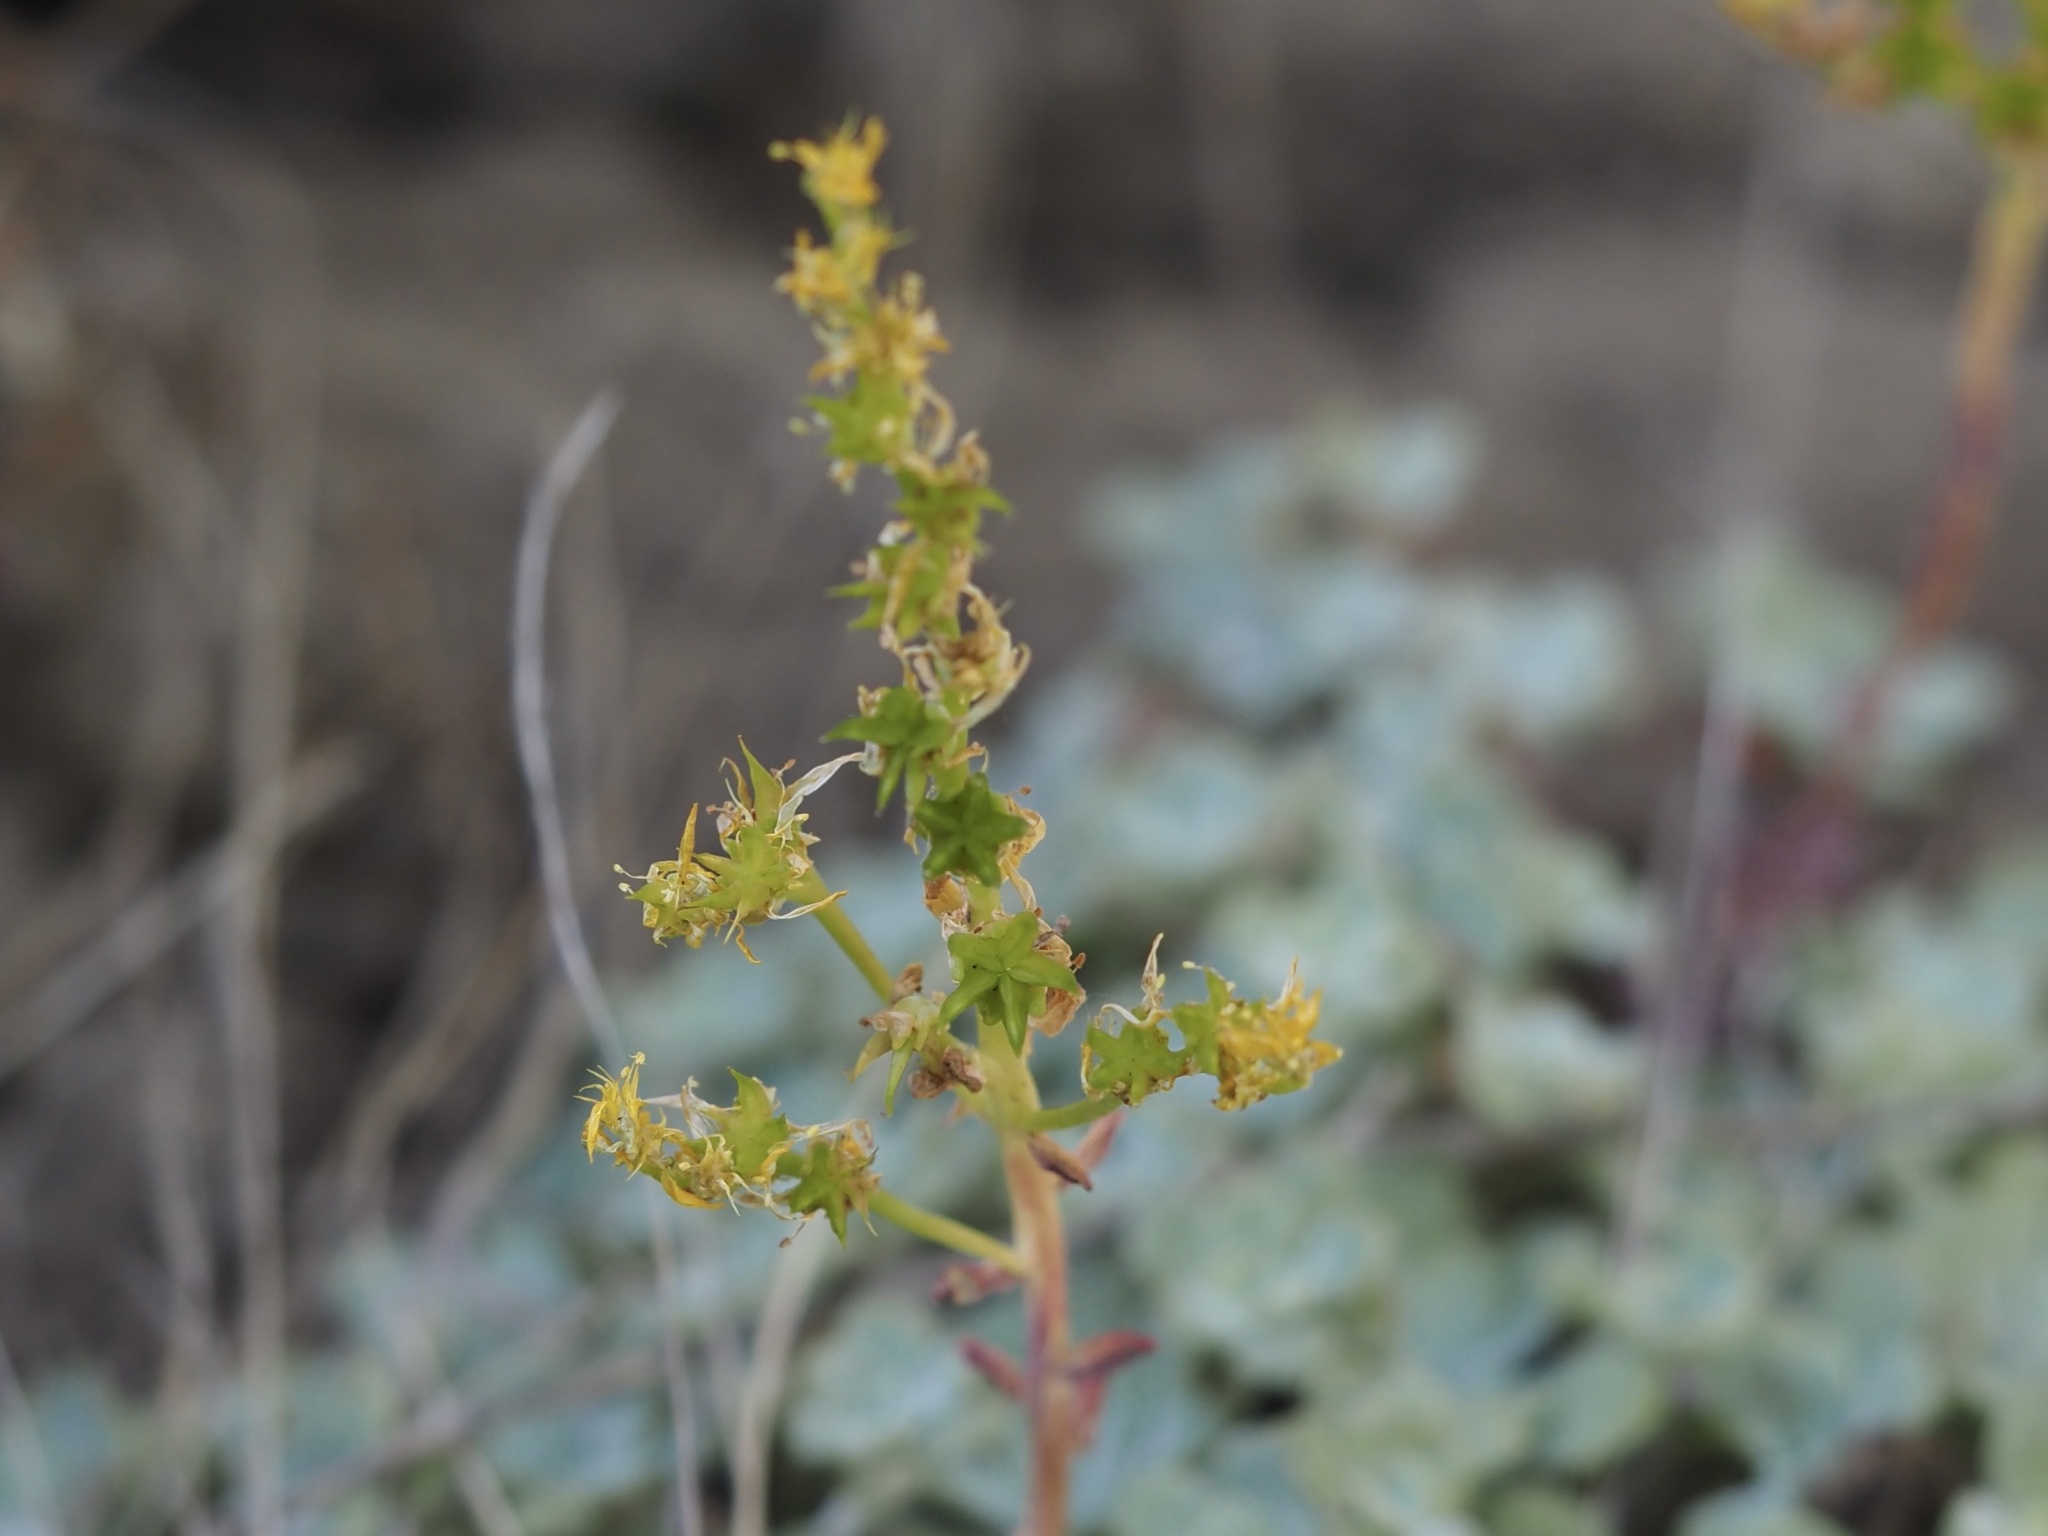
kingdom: Plantae
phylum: Tracheophyta
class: Magnoliopsida
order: Saxifragales
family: Crassulaceae
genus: Sedum
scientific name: Sedum spathulifolium
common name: Colorado stonecrop
